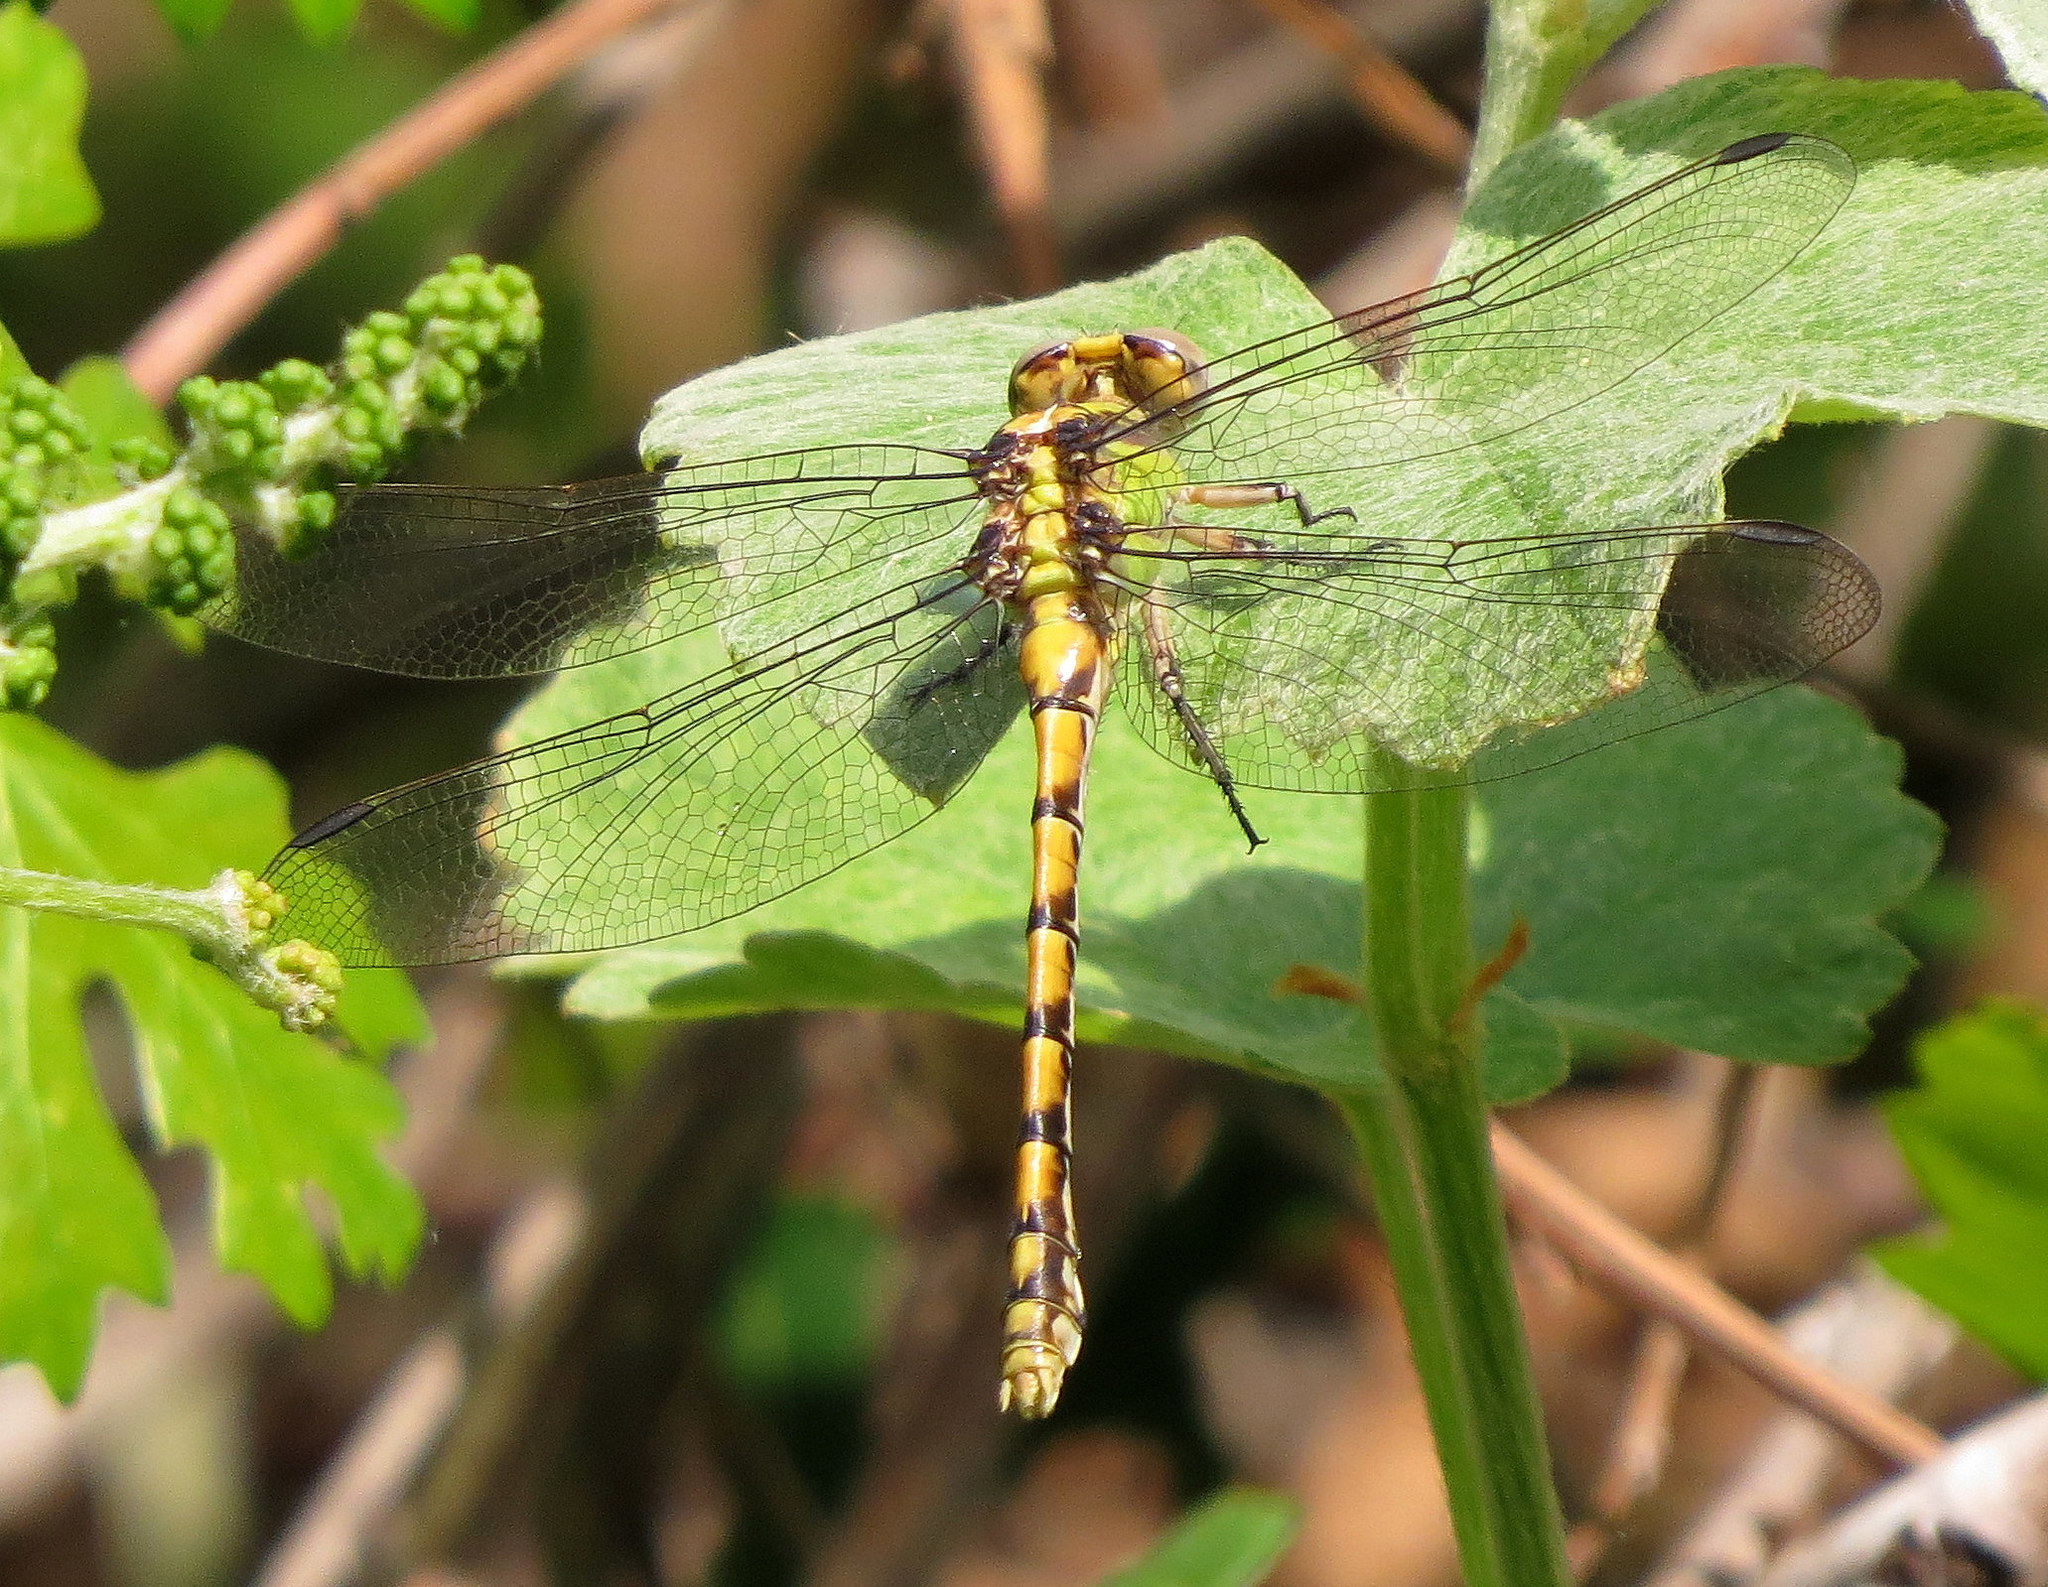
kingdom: Animalia
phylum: Arthropoda
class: Insecta
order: Odonata
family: Gomphidae
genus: Ophiogomphus
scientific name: Ophiogomphus occidentis
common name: Sinuous snaketail
